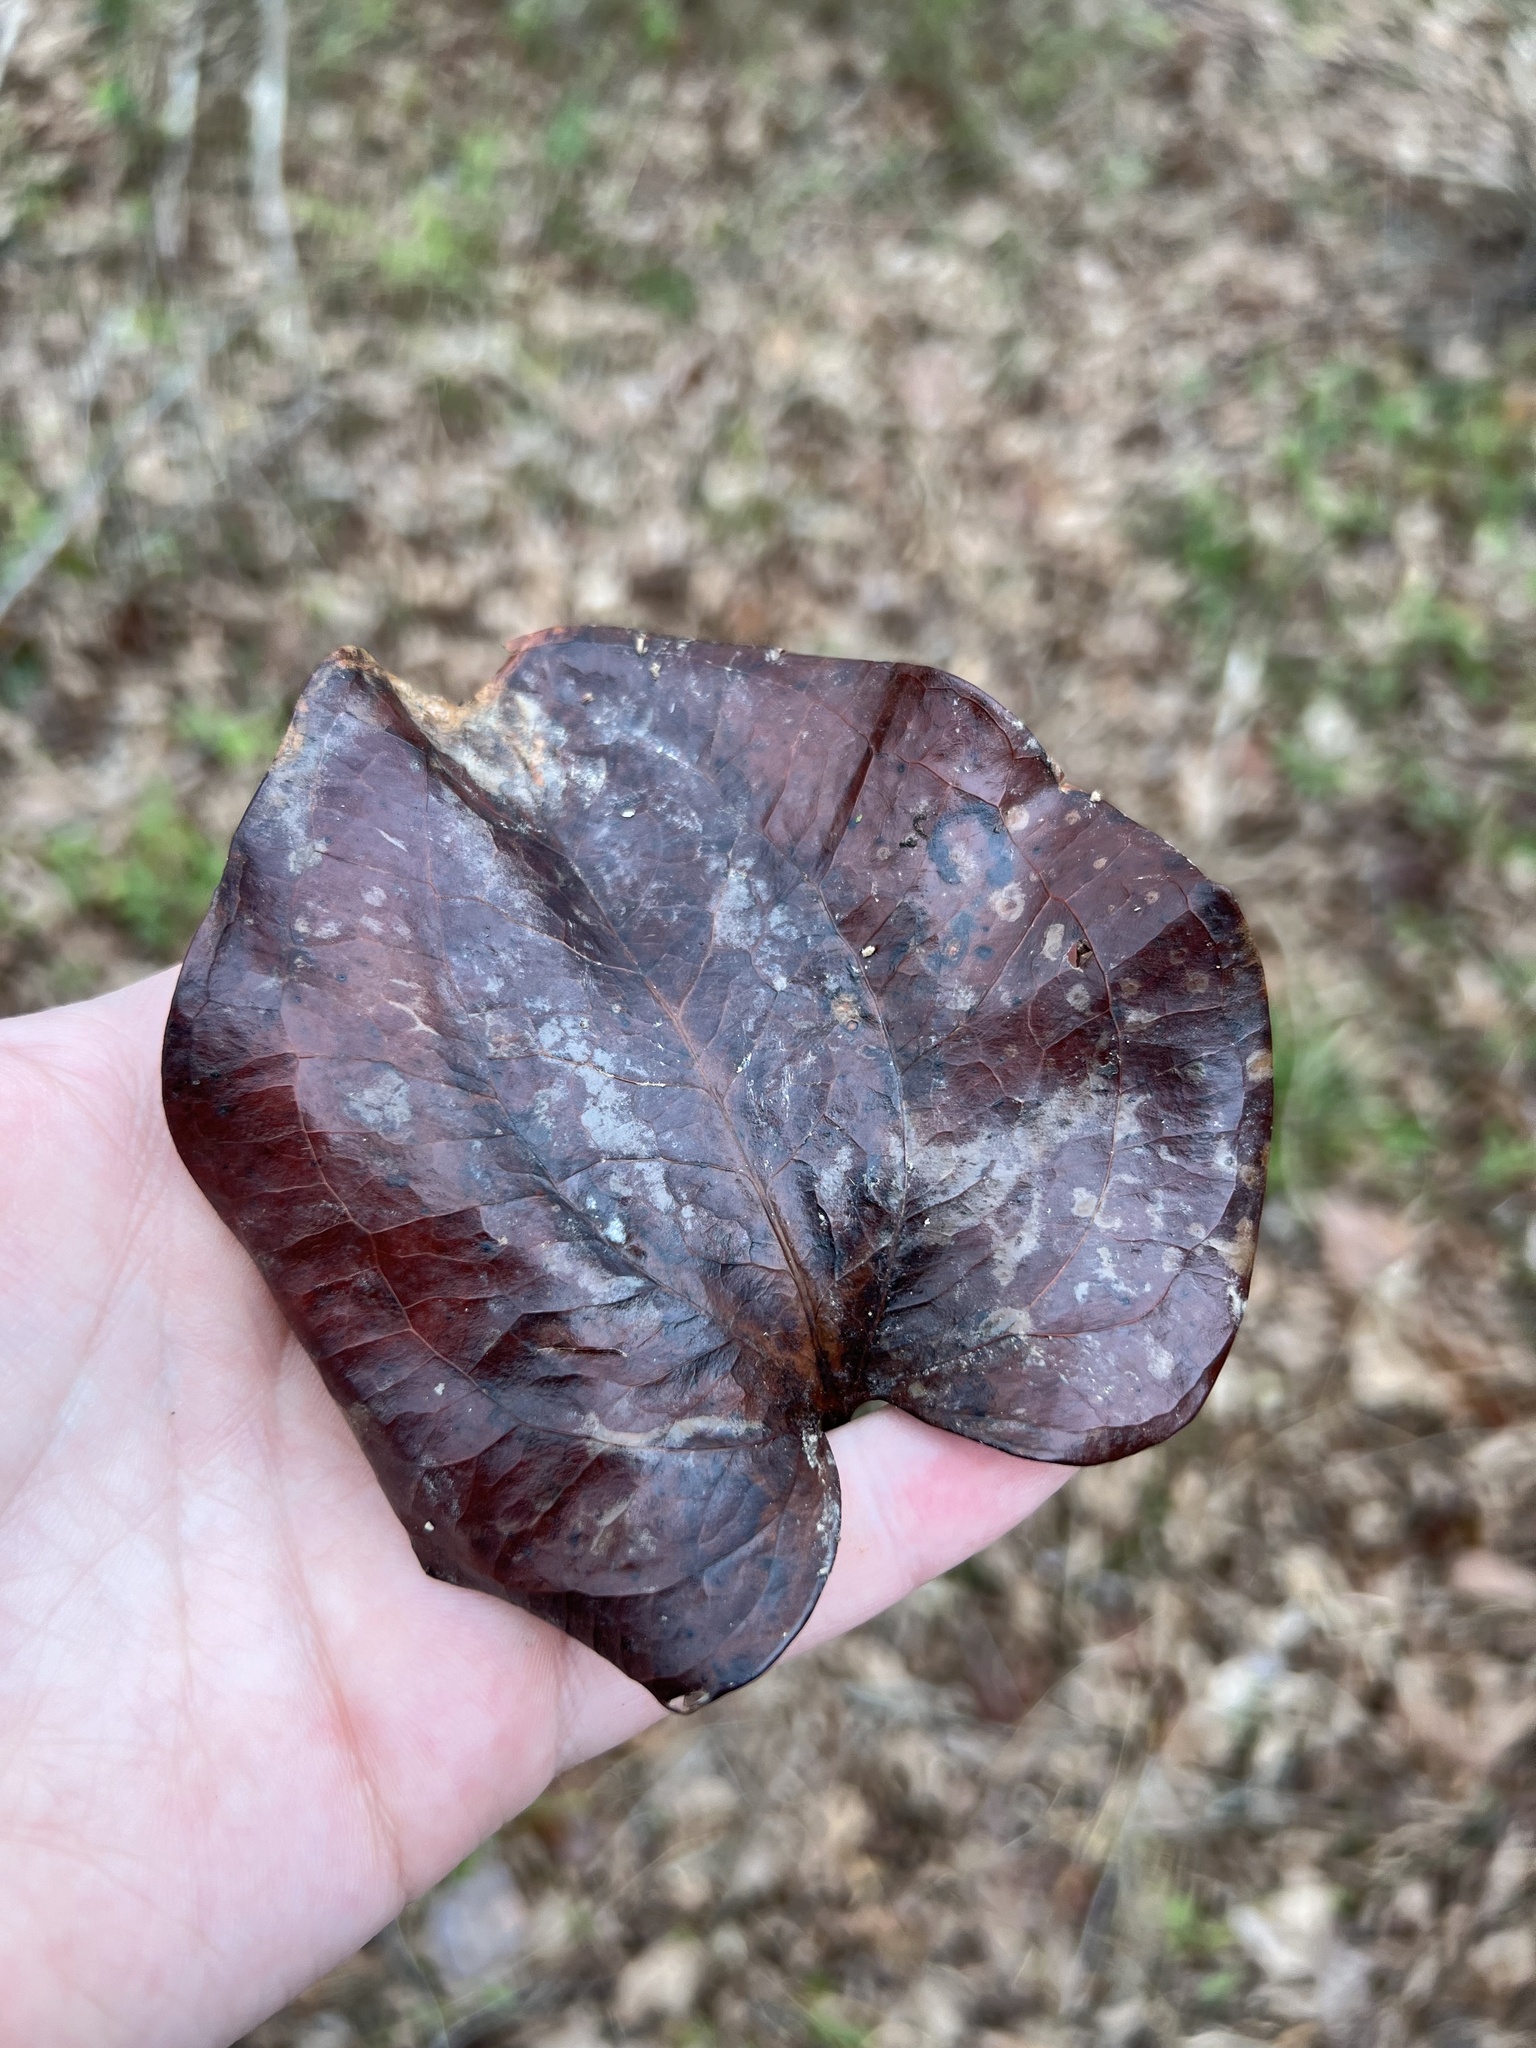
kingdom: Plantae
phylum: Tracheophyta
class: Liliopsida
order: Liliales
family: Smilacaceae
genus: Smilax
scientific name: Smilax glauca
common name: Cat greenbrier
